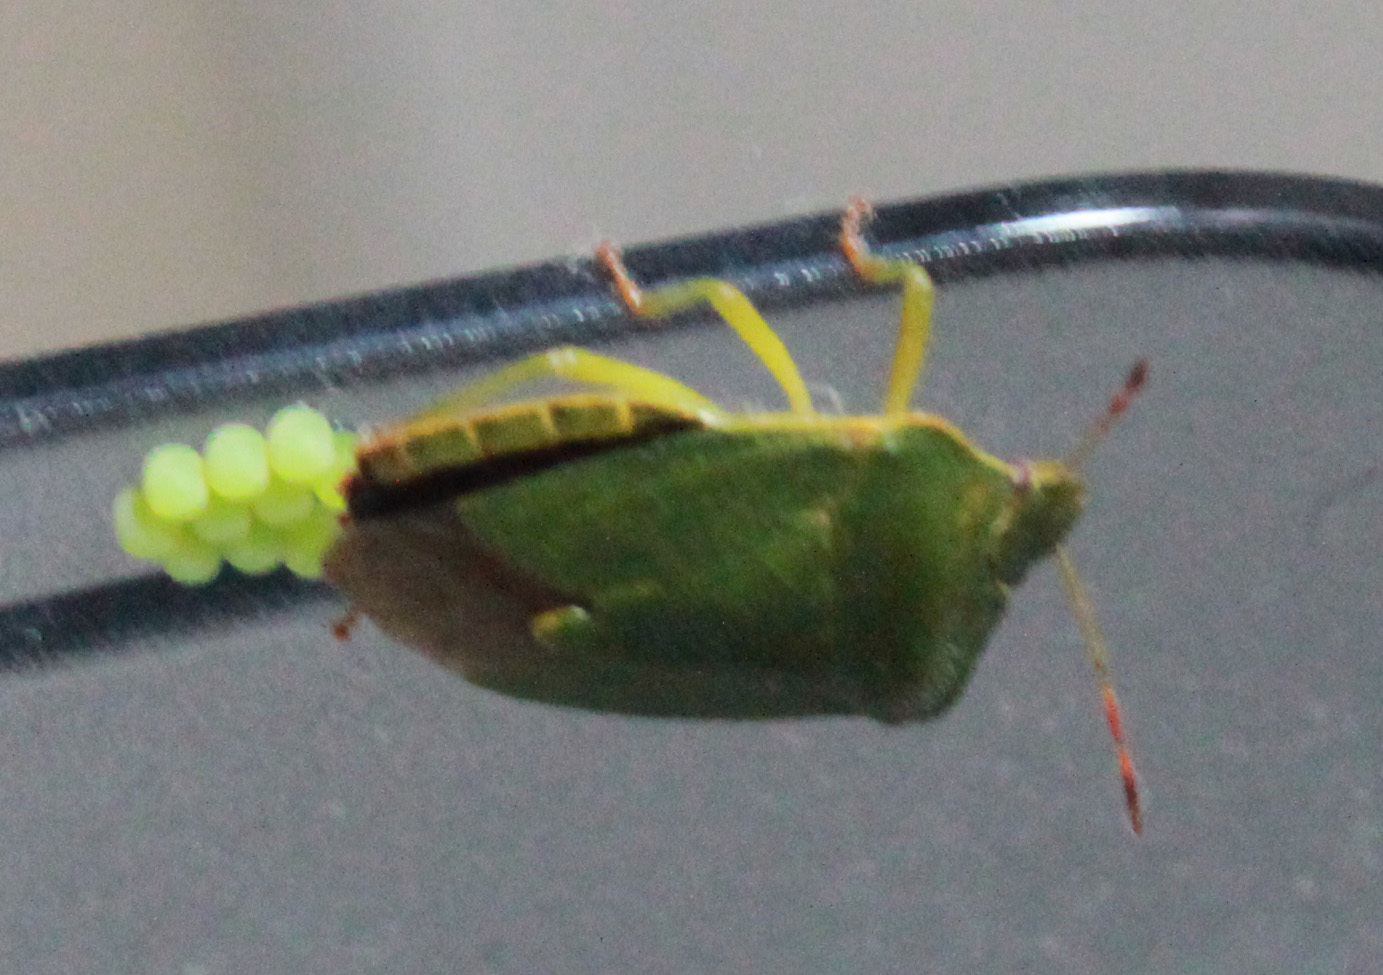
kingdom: Animalia
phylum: Arthropoda
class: Insecta
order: Hemiptera
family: Pentatomidae
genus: Palomena
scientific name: Palomena prasina
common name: Green shieldbug
